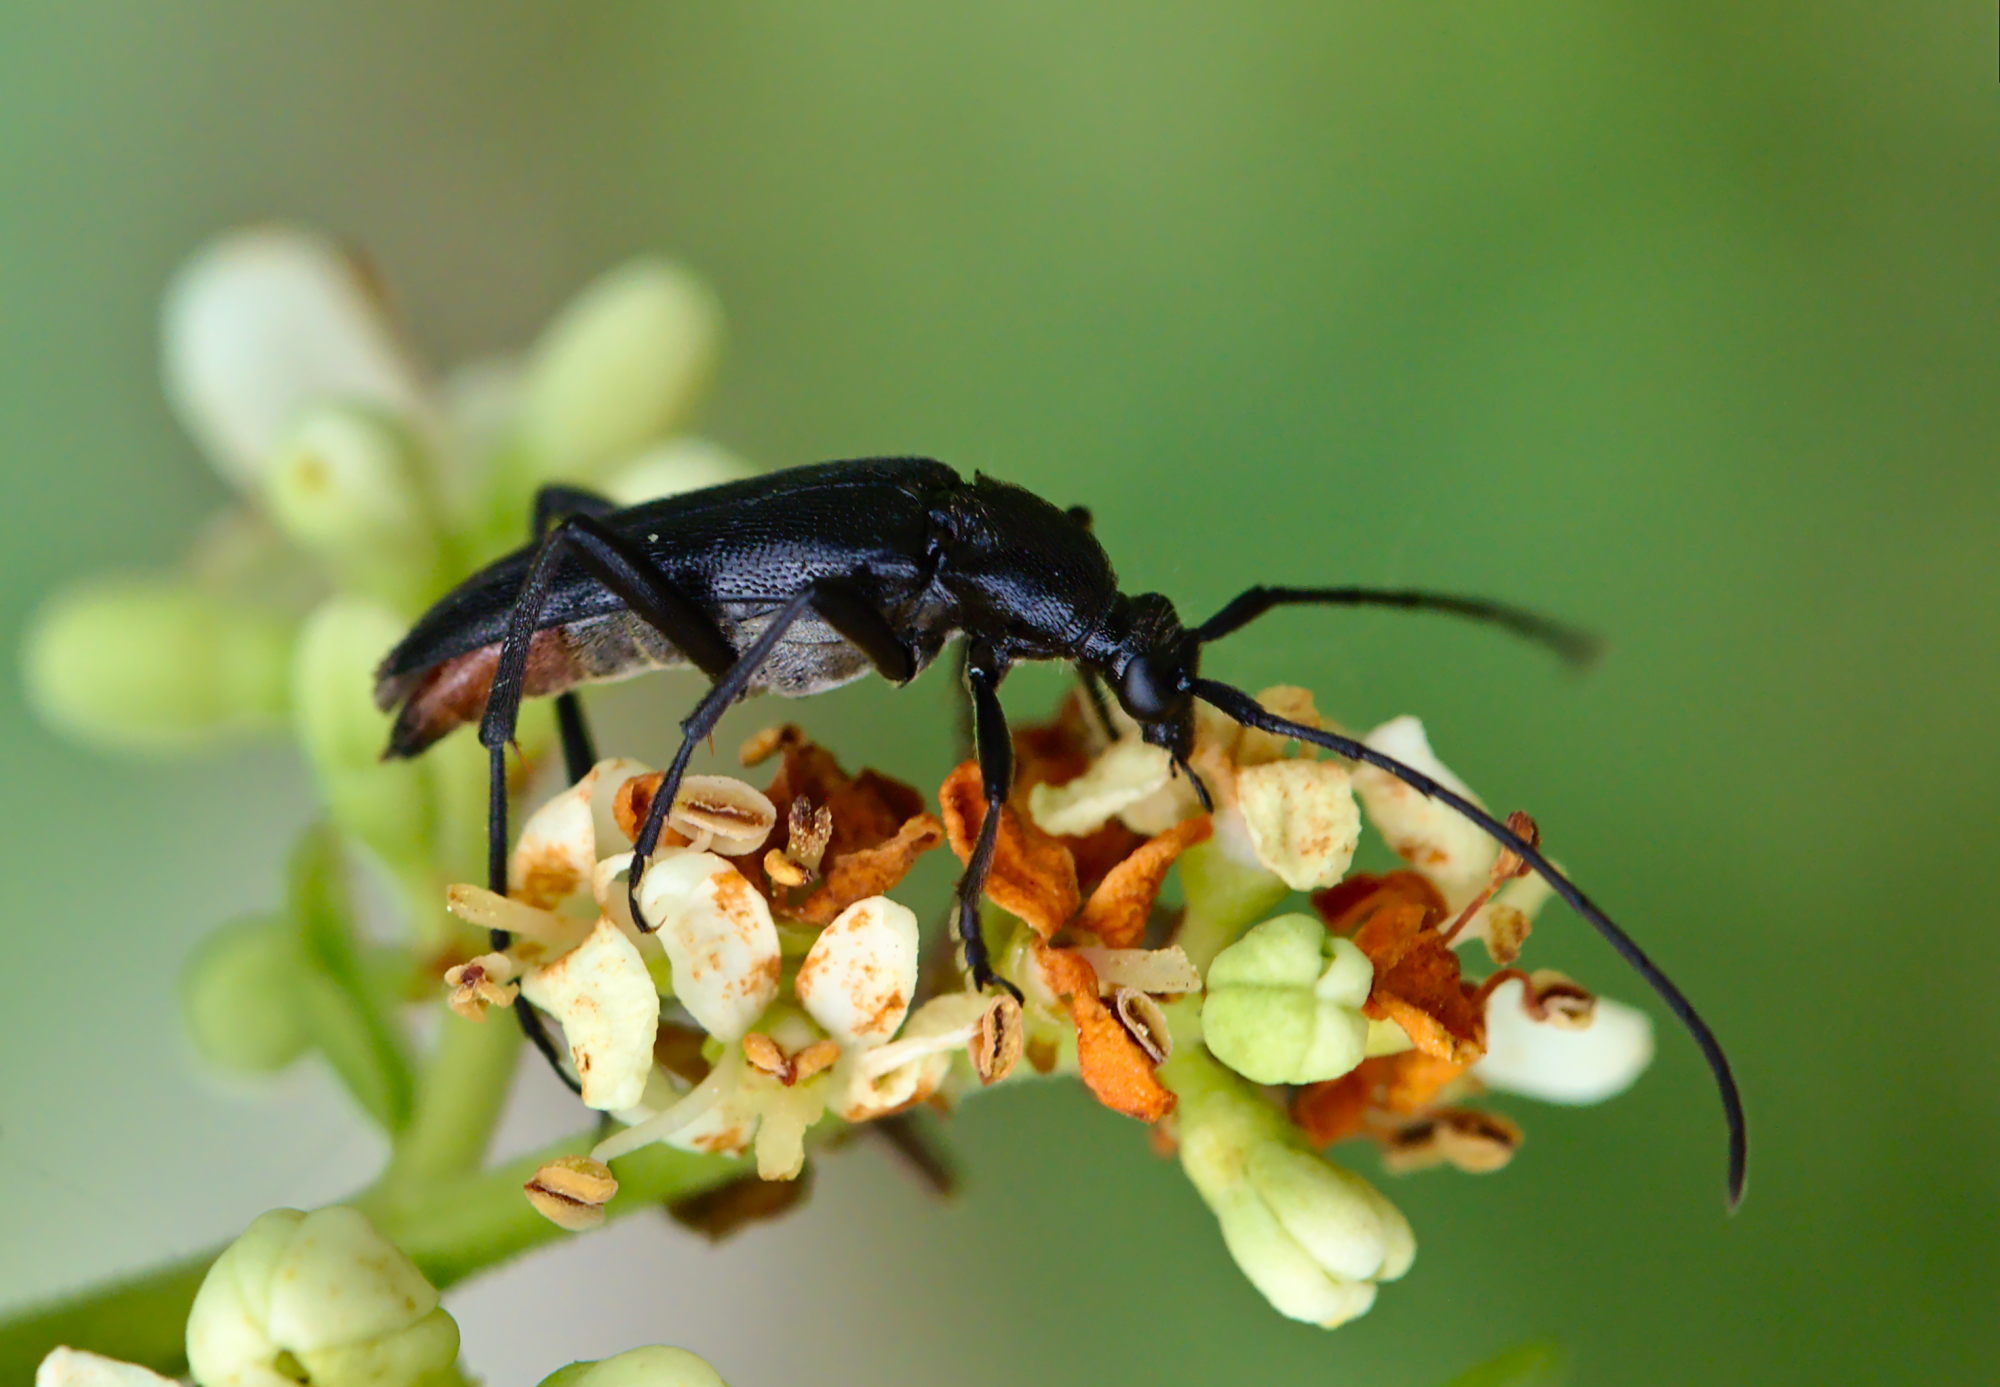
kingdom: Animalia
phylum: Arthropoda
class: Insecta
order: Coleoptera
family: Cerambycidae
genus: Stenurella
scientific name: Stenurella nigra
